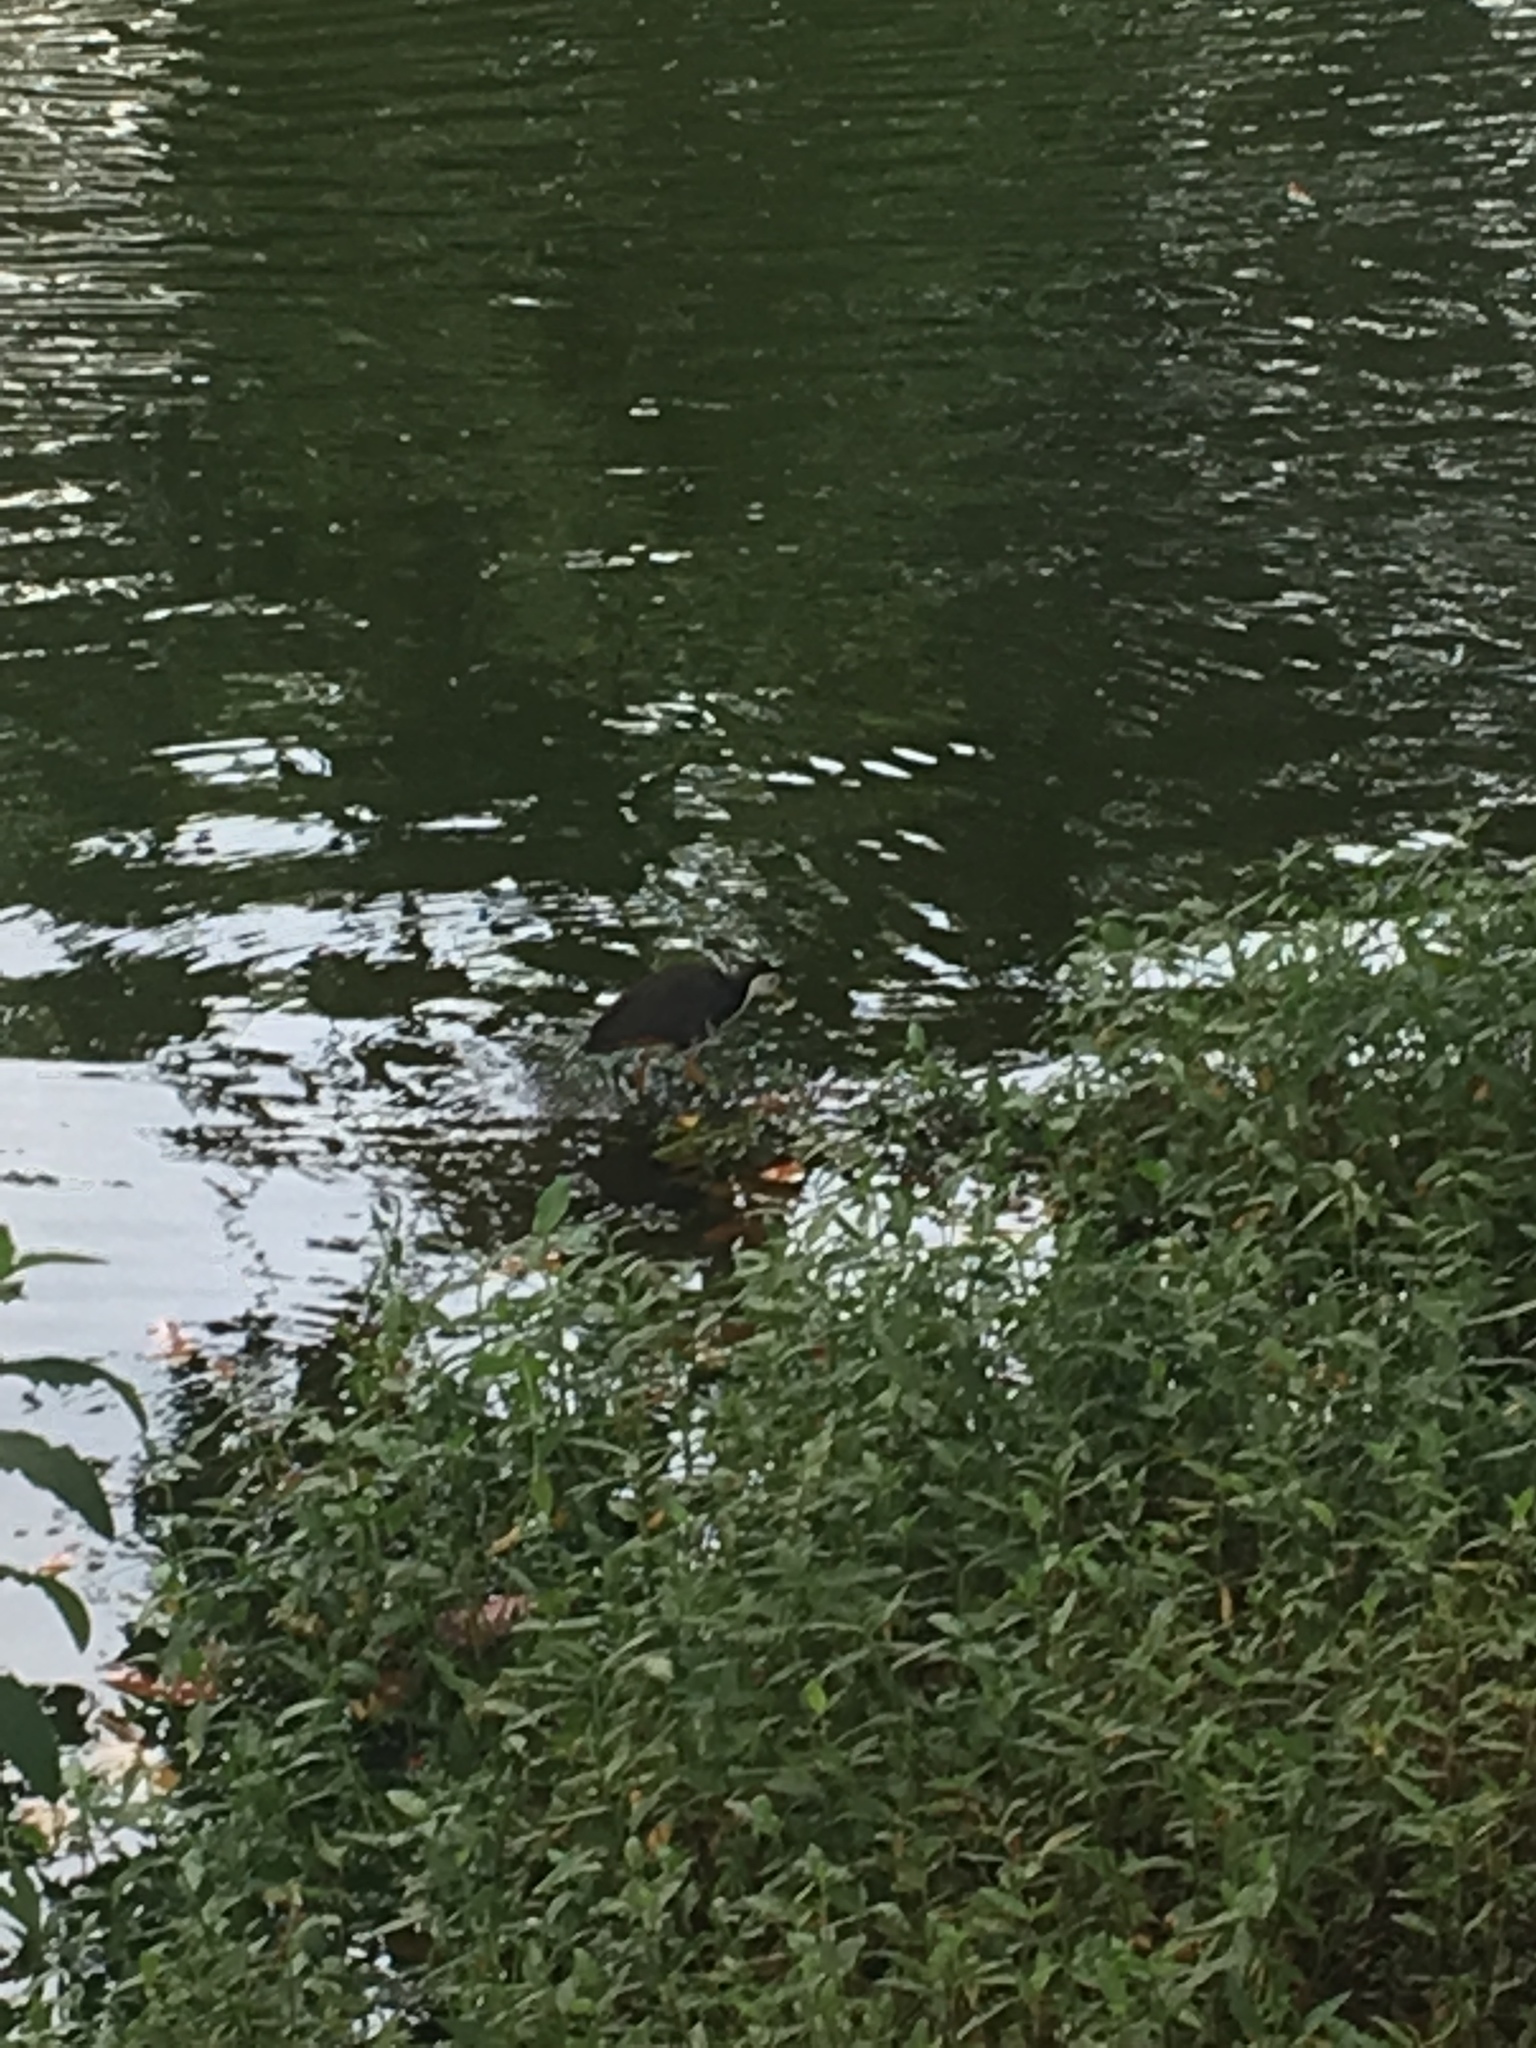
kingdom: Animalia
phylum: Chordata
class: Aves
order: Gruiformes
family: Rallidae
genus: Amaurornis
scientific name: Amaurornis phoenicurus
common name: White-breasted waterhen
